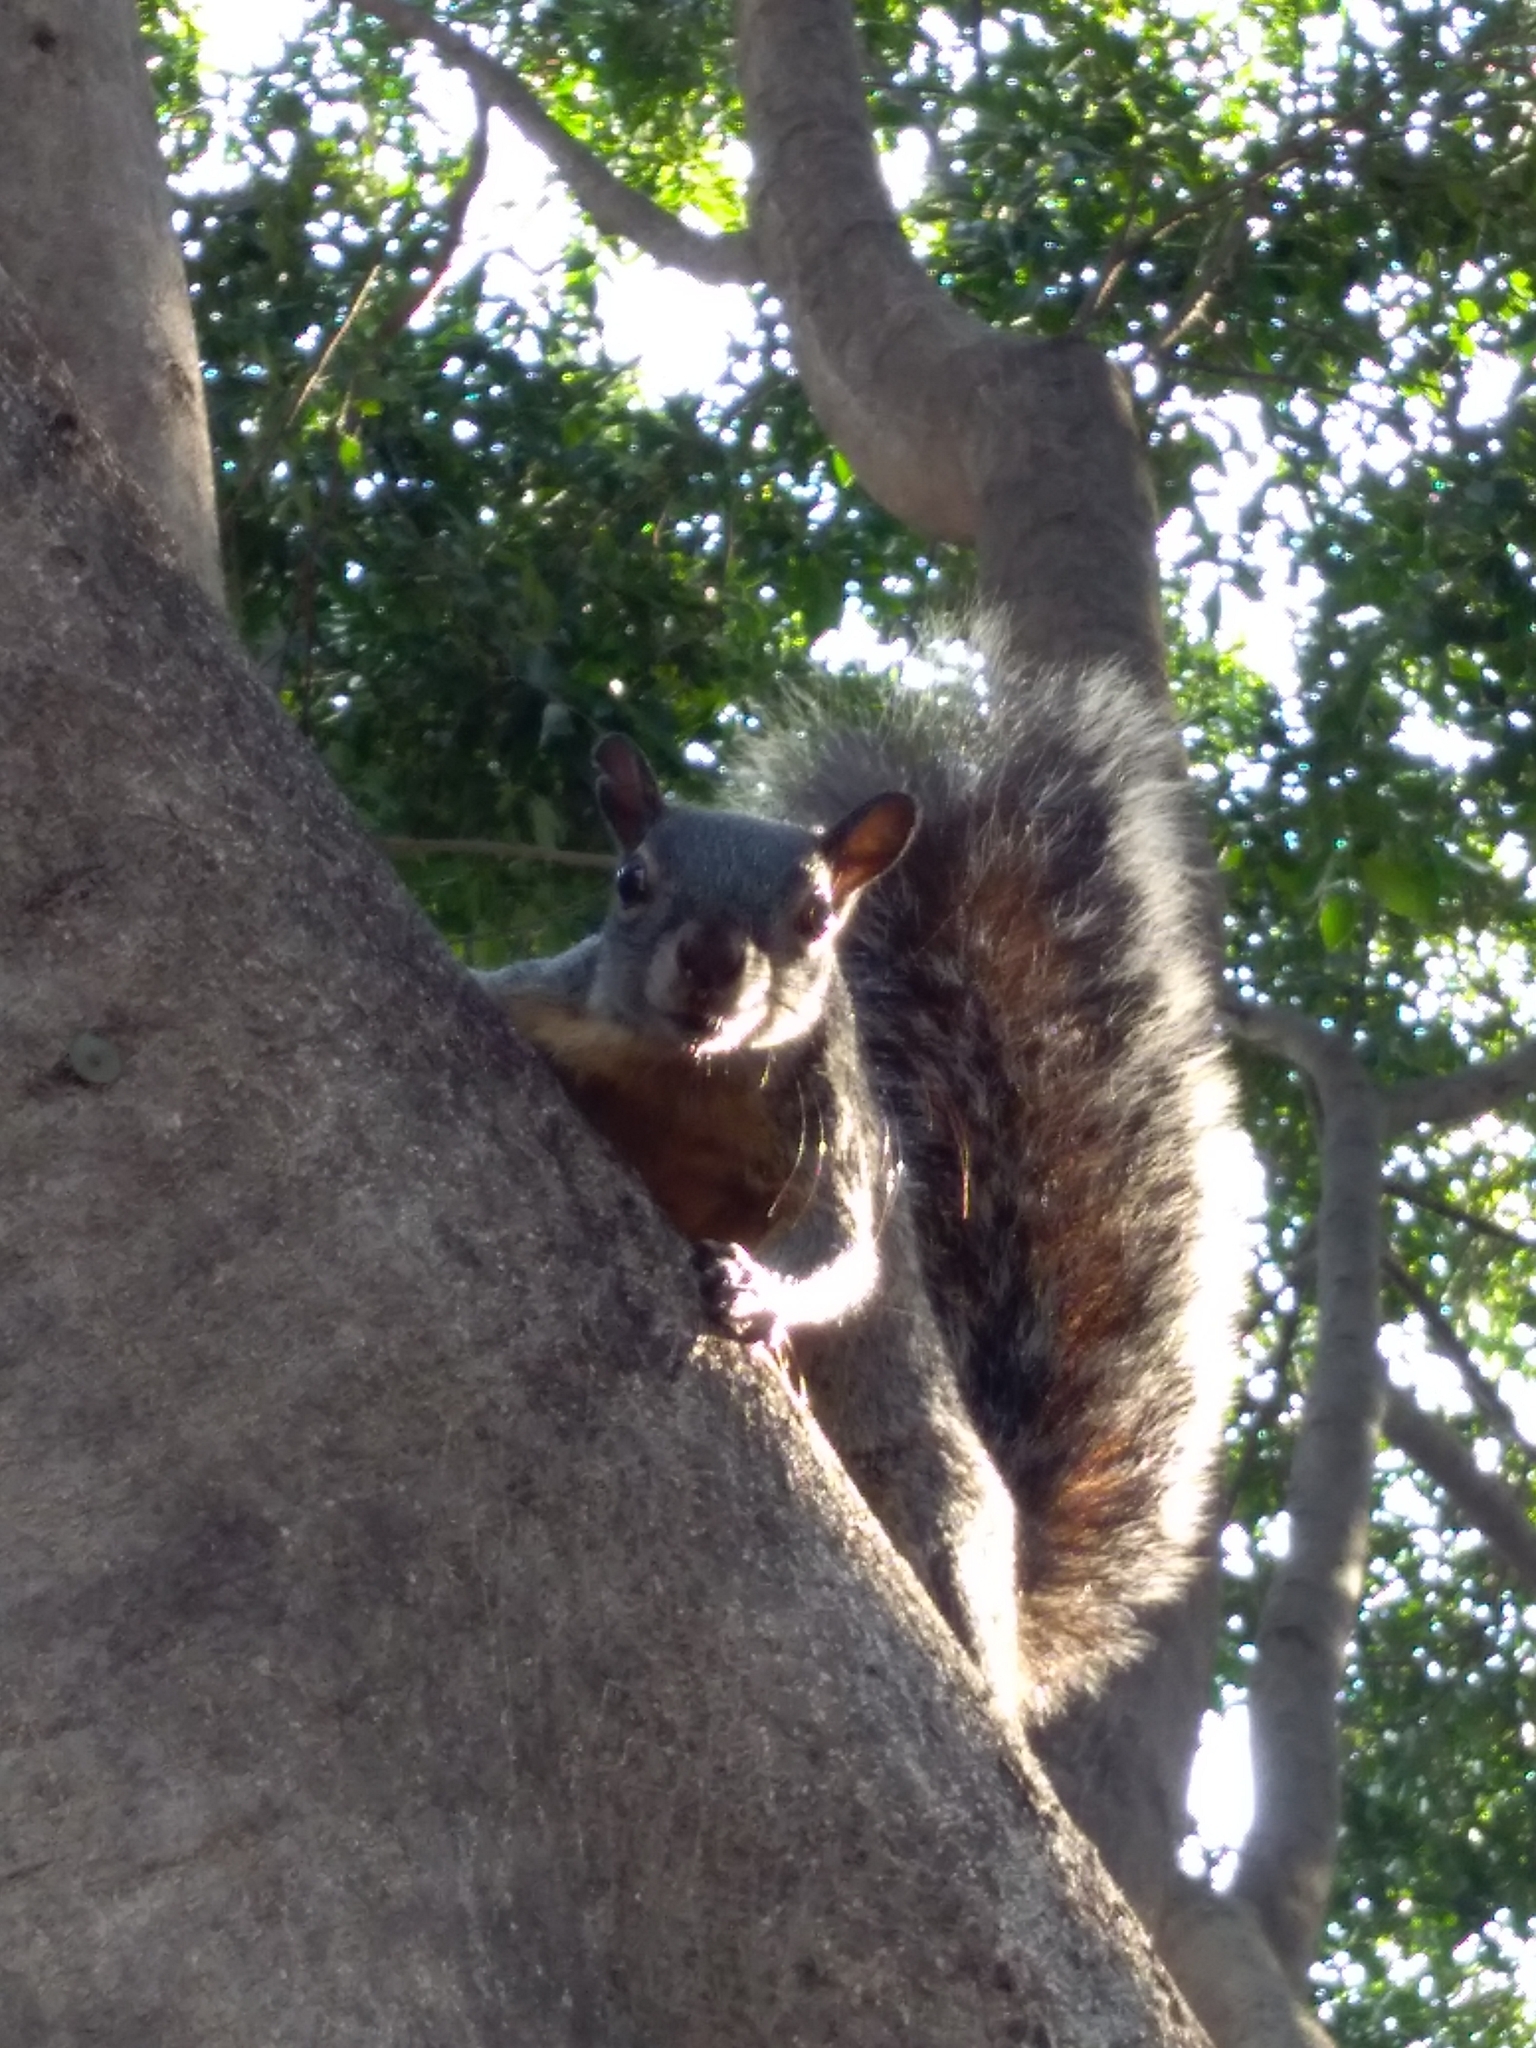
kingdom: Animalia
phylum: Chordata
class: Mammalia
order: Rodentia
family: Sciuridae
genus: Sciurus
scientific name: Sciurus aureogaster
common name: Red-bellied squirrel
